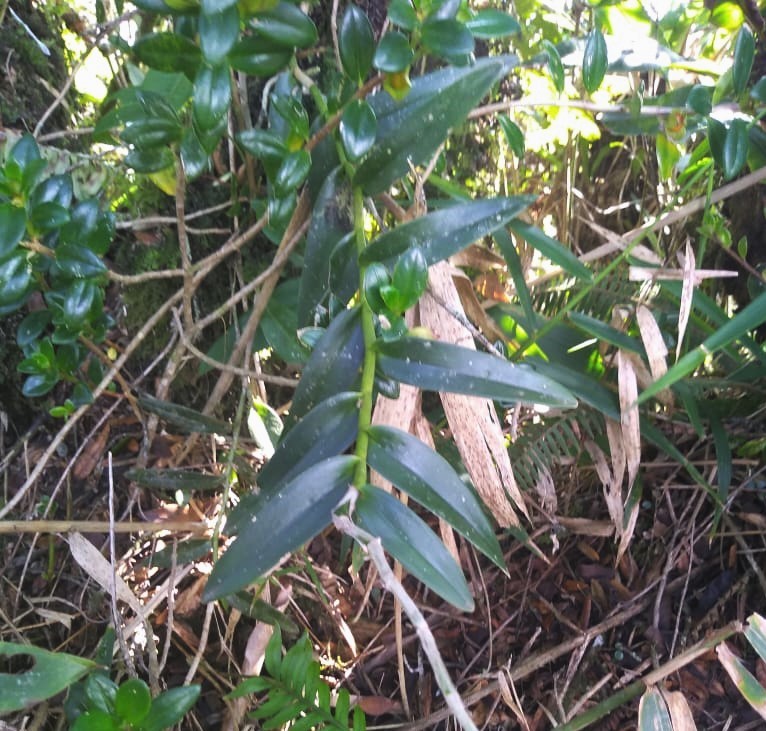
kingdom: Plantae
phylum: Tracheophyta
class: Liliopsida
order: Asparagales
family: Orchidaceae
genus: Epidendrum
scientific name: Epidendrum secundum
